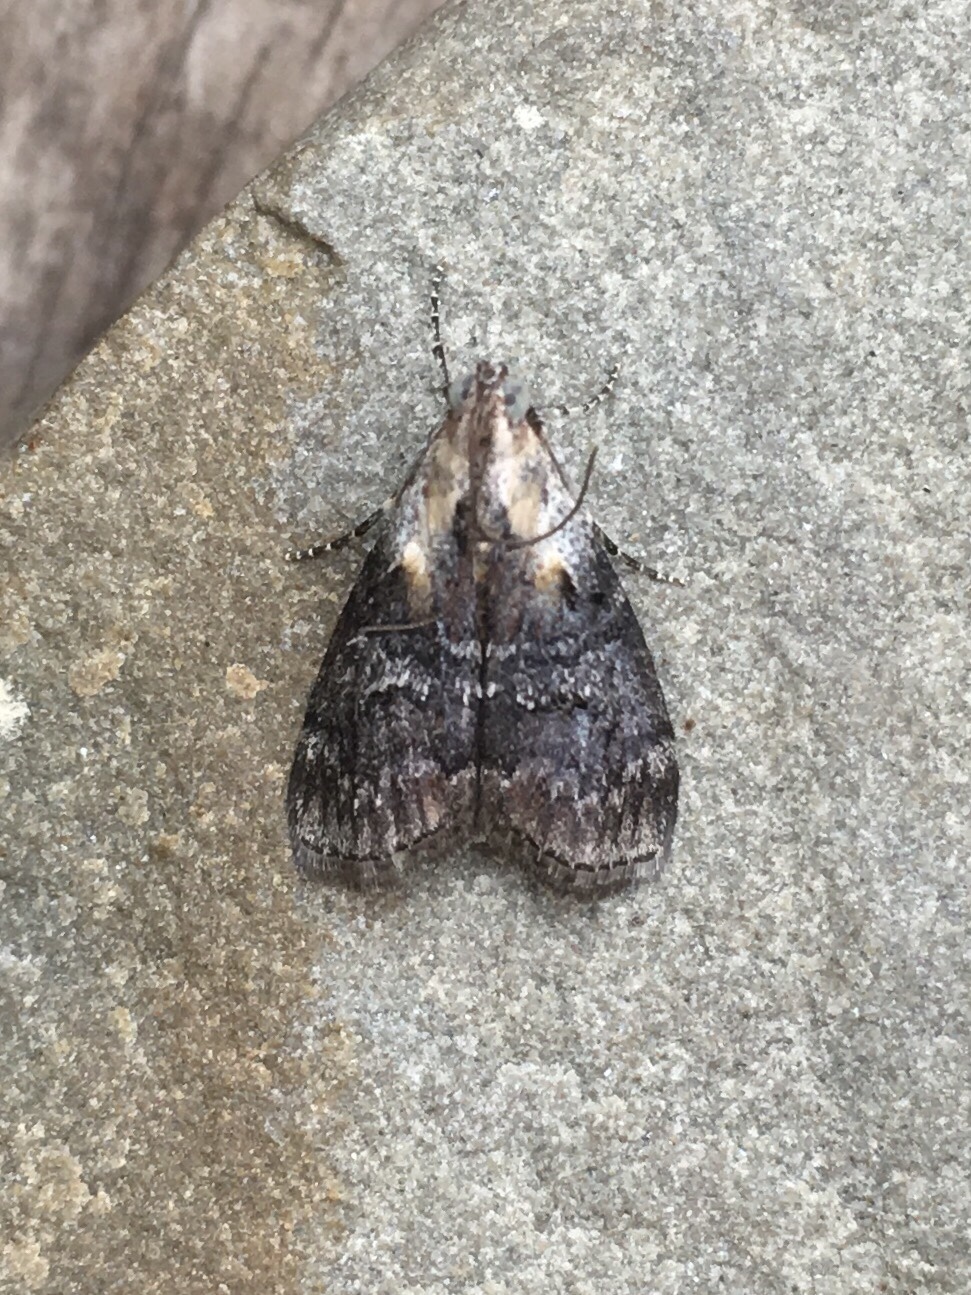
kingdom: Animalia
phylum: Arthropoda
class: Insecta
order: Lepidoptera
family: Pyralidae
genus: Pococera
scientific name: Pococera expandens
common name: Striped oak webworm moth
